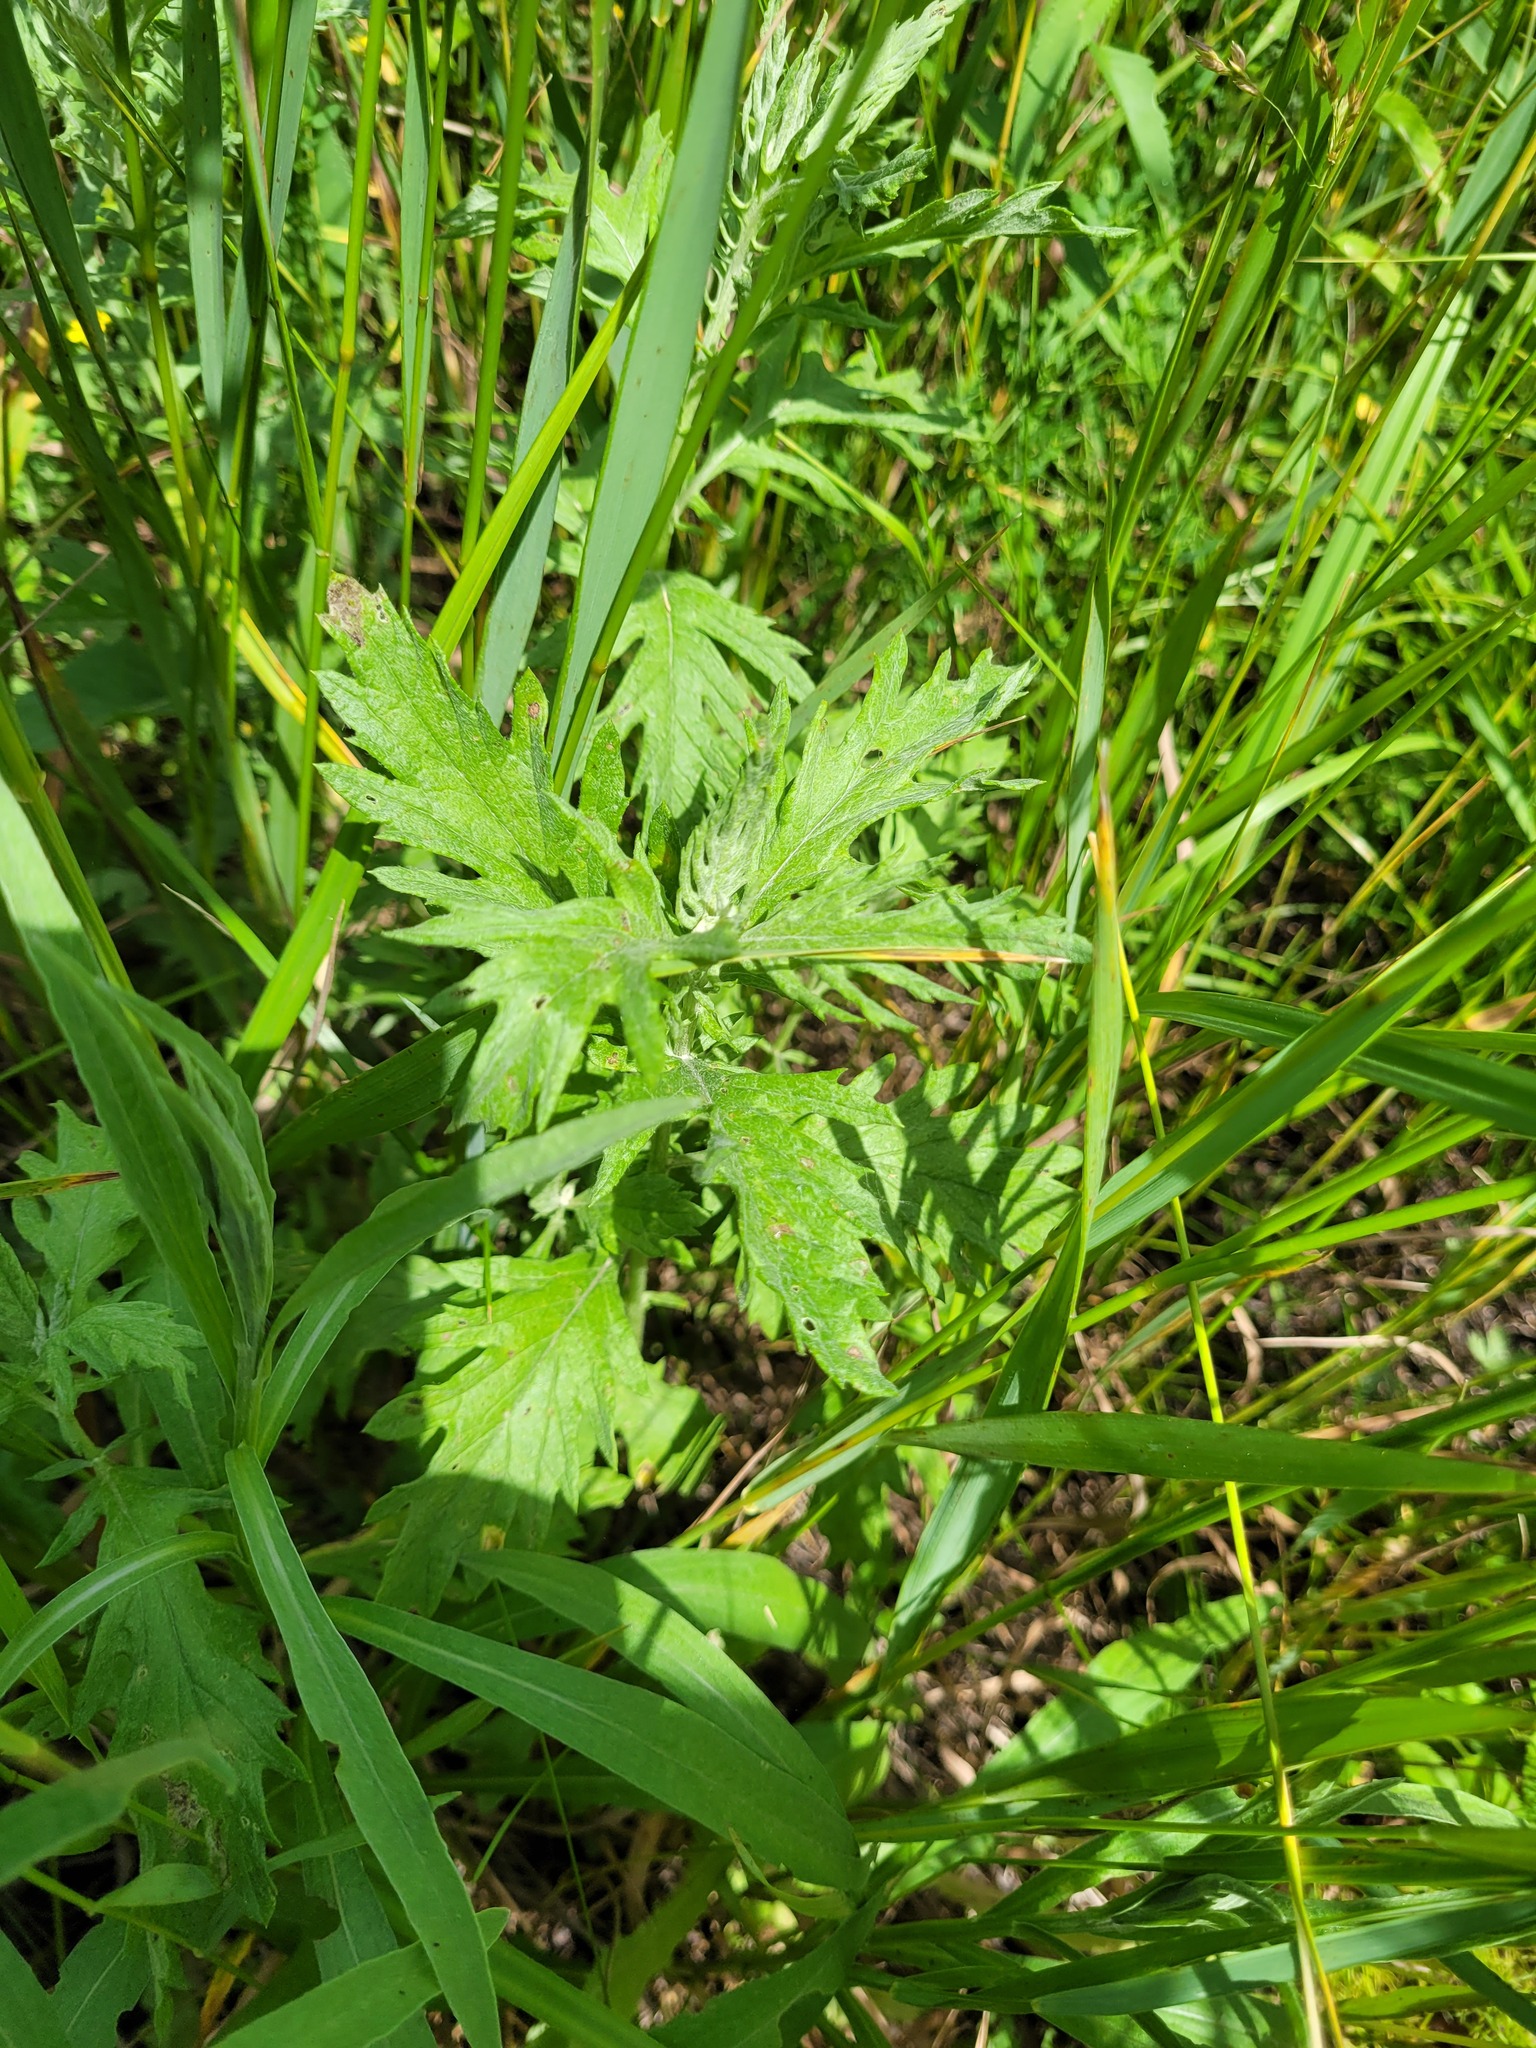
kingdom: Plantae
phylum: Tracheophyta
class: Magnoliopsida
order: Asterales
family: Asteraceae
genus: Jacobaea
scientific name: Jacobaea erucifolia
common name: Hoary ragwort
